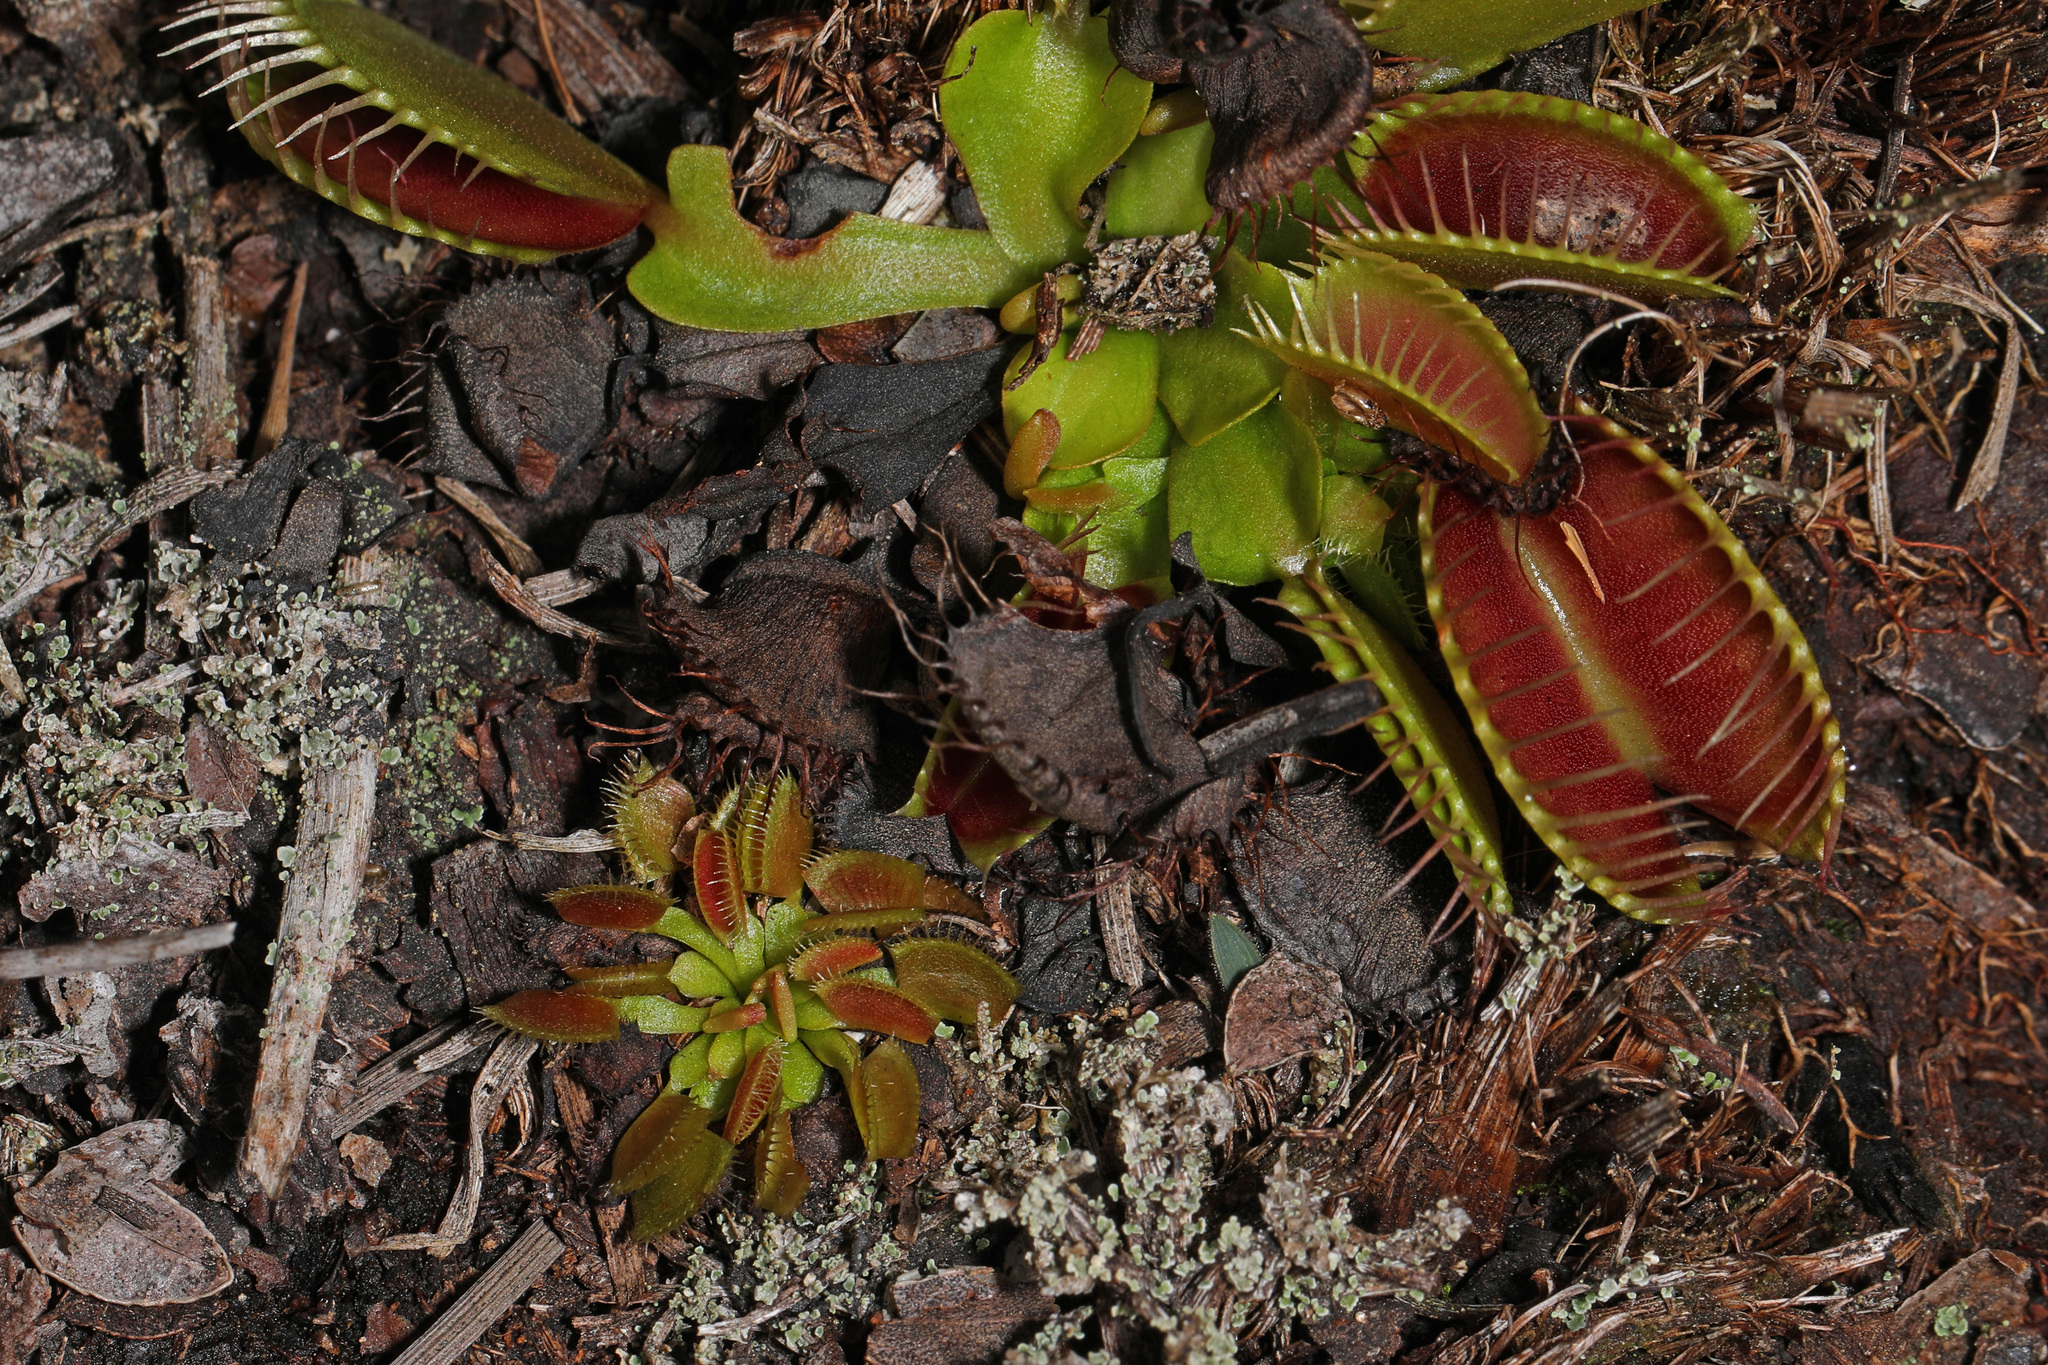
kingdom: Plantae
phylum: Tracheophyta
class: Magnoliopsida
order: Caryophyllales
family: Droseraceae
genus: Dionaea
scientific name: Dionaea muscipula
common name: Venus flytrap
